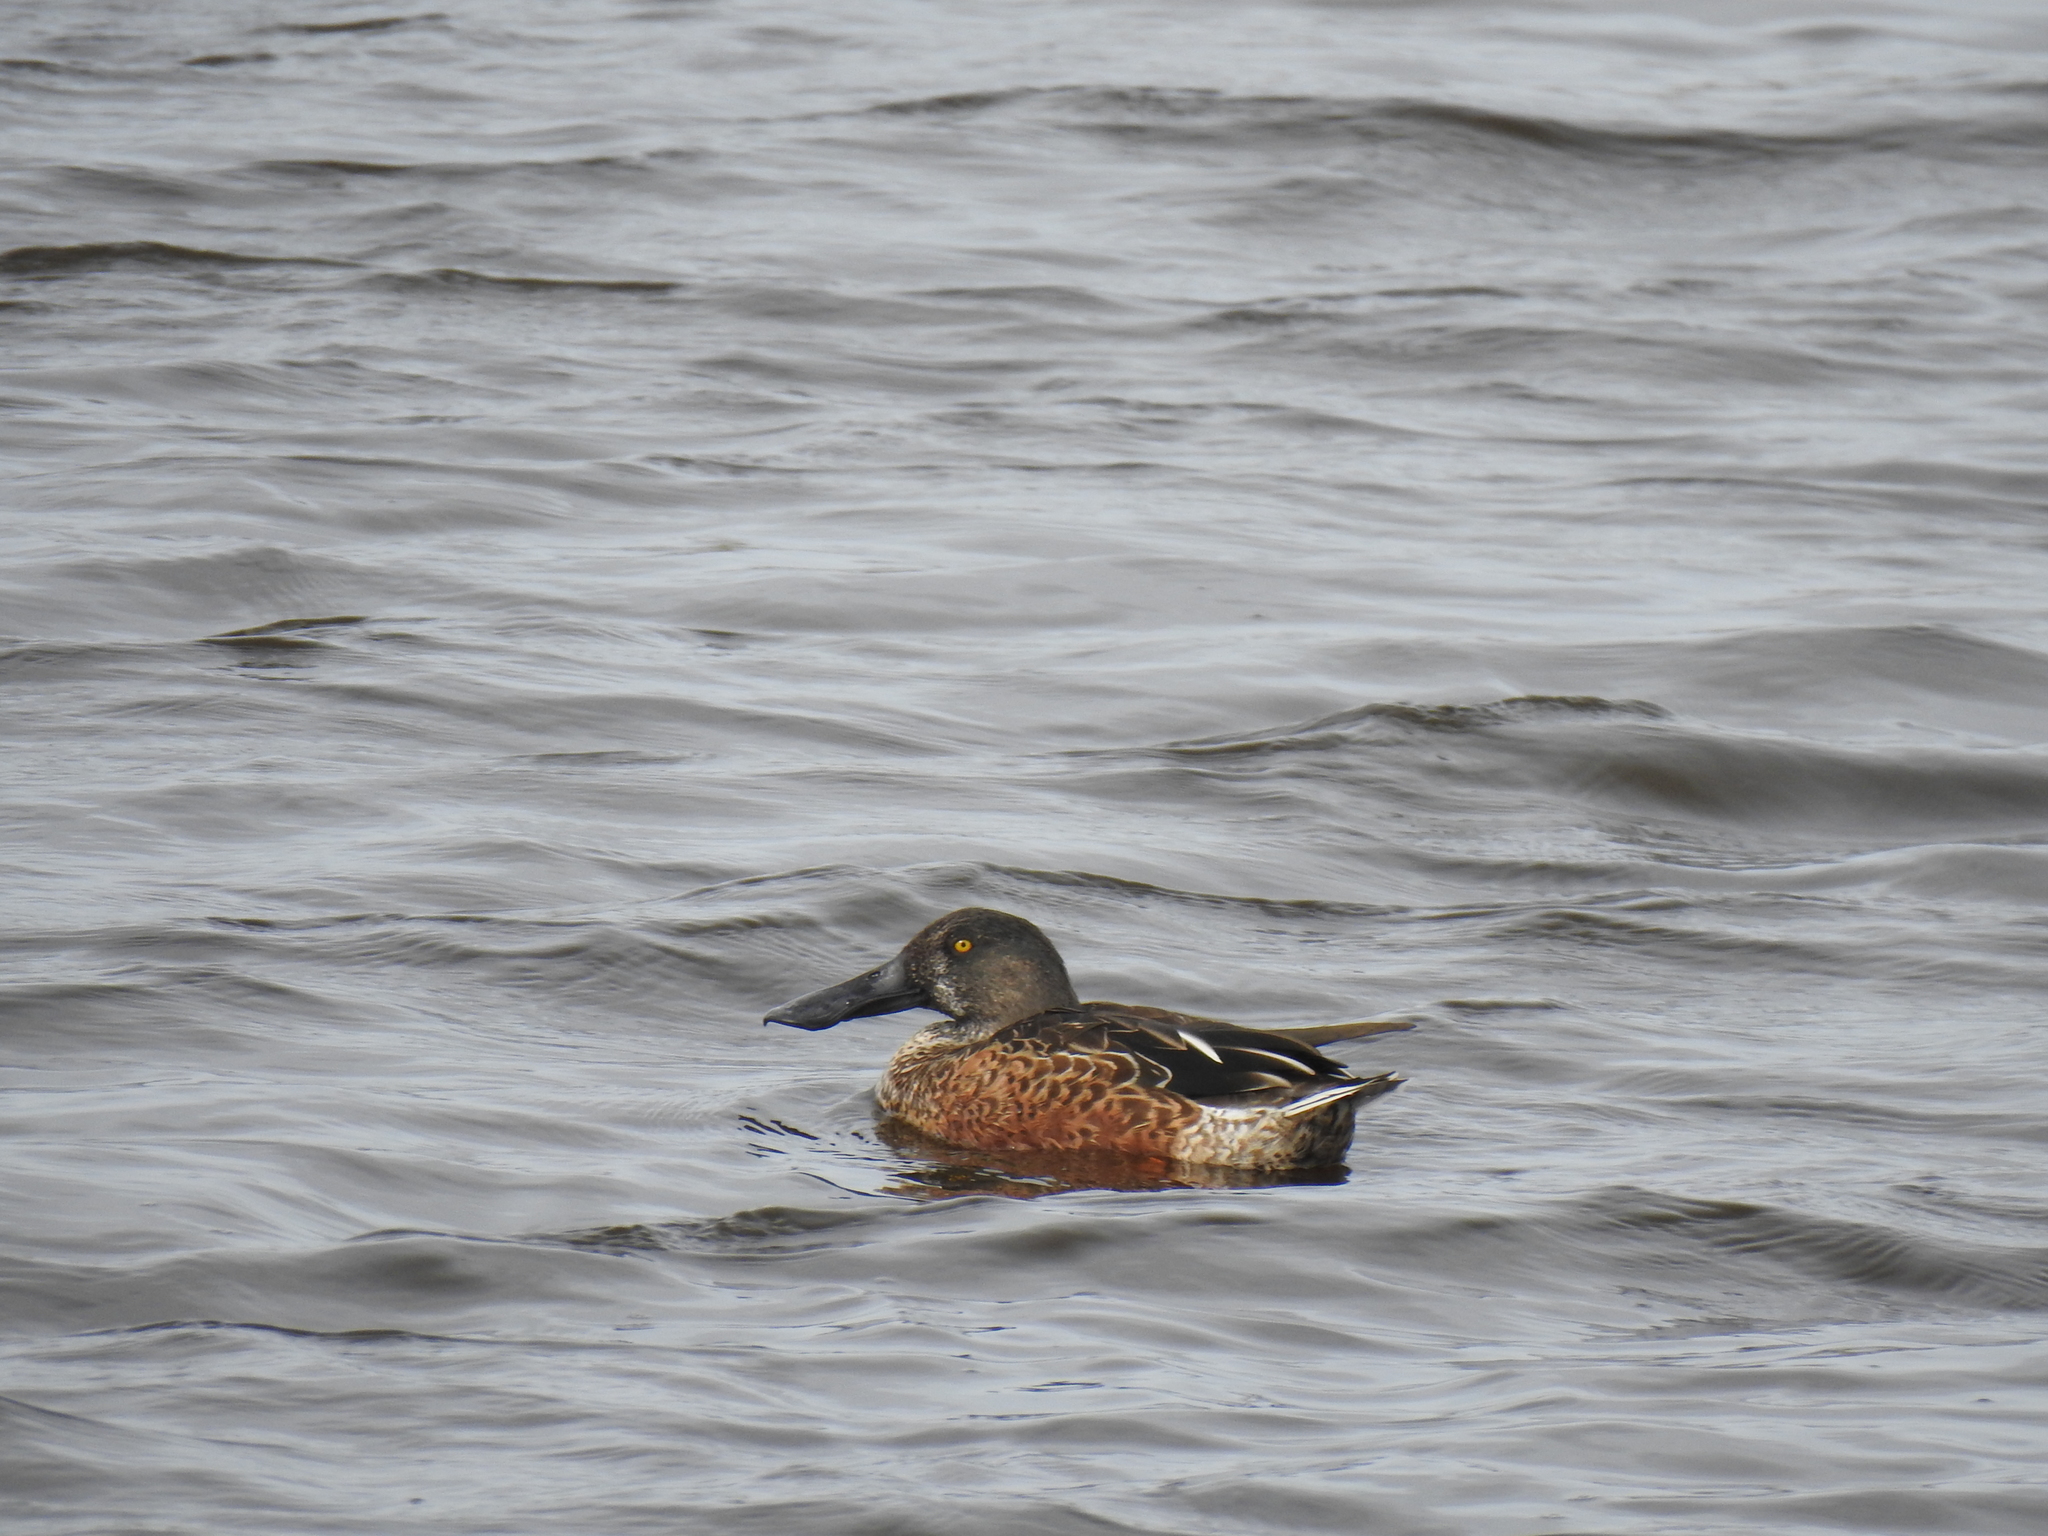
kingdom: Animalia
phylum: Chordata
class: Aves
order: Anseriformes
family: Anatidae
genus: Spatula
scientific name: Spatula clypeata
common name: Northern shoveler
